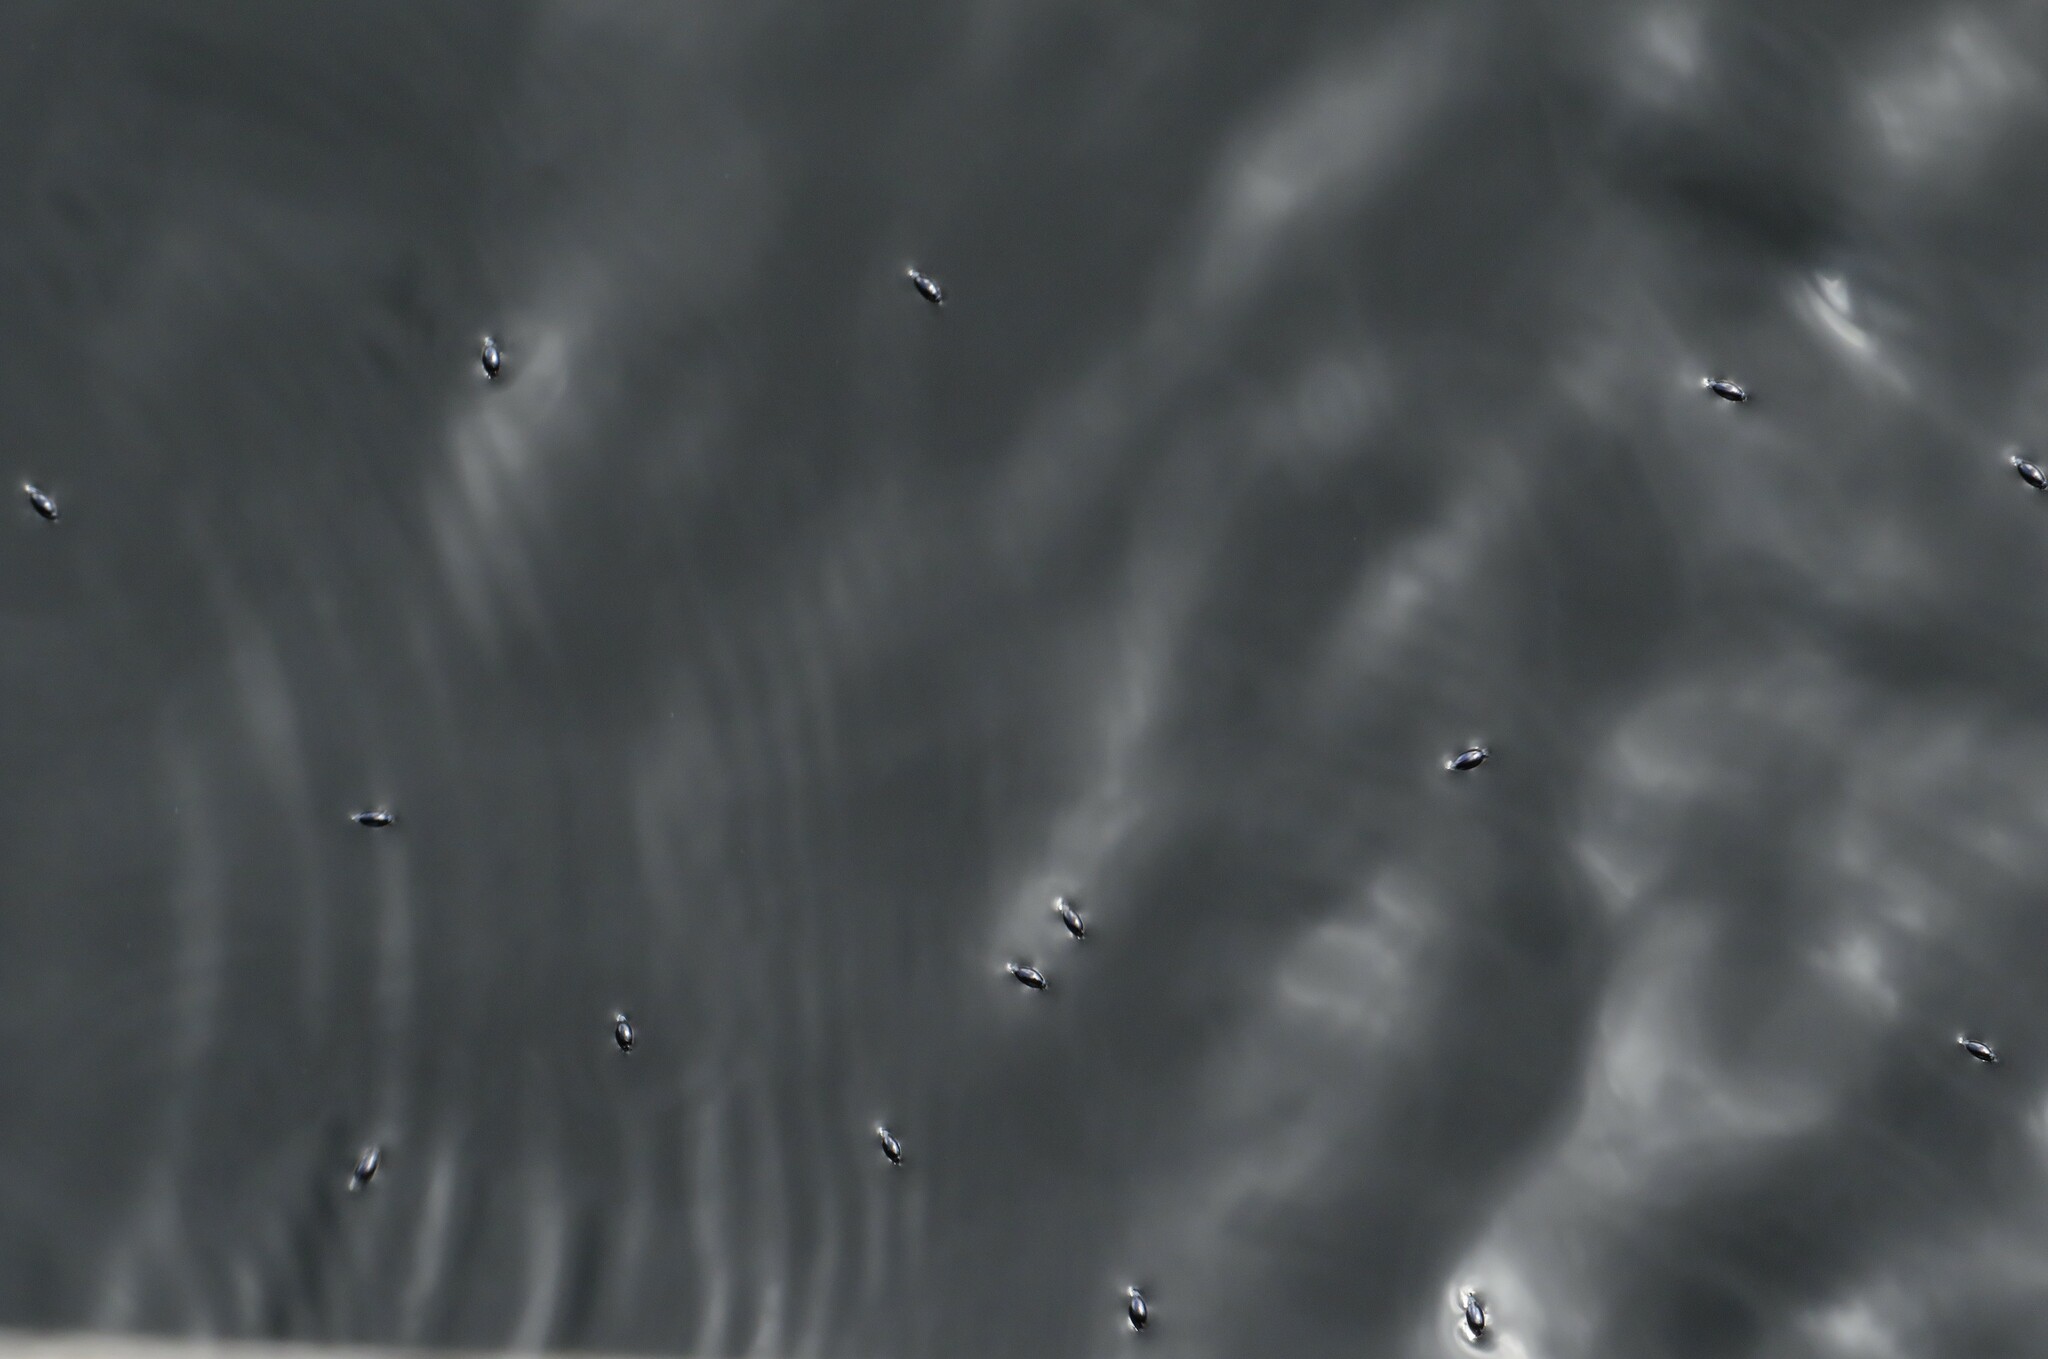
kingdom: Animalia
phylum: Arthropoda
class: Insecta
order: Coleoptera
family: Gyrinidae
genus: Gyrinus
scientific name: Gyrinus
